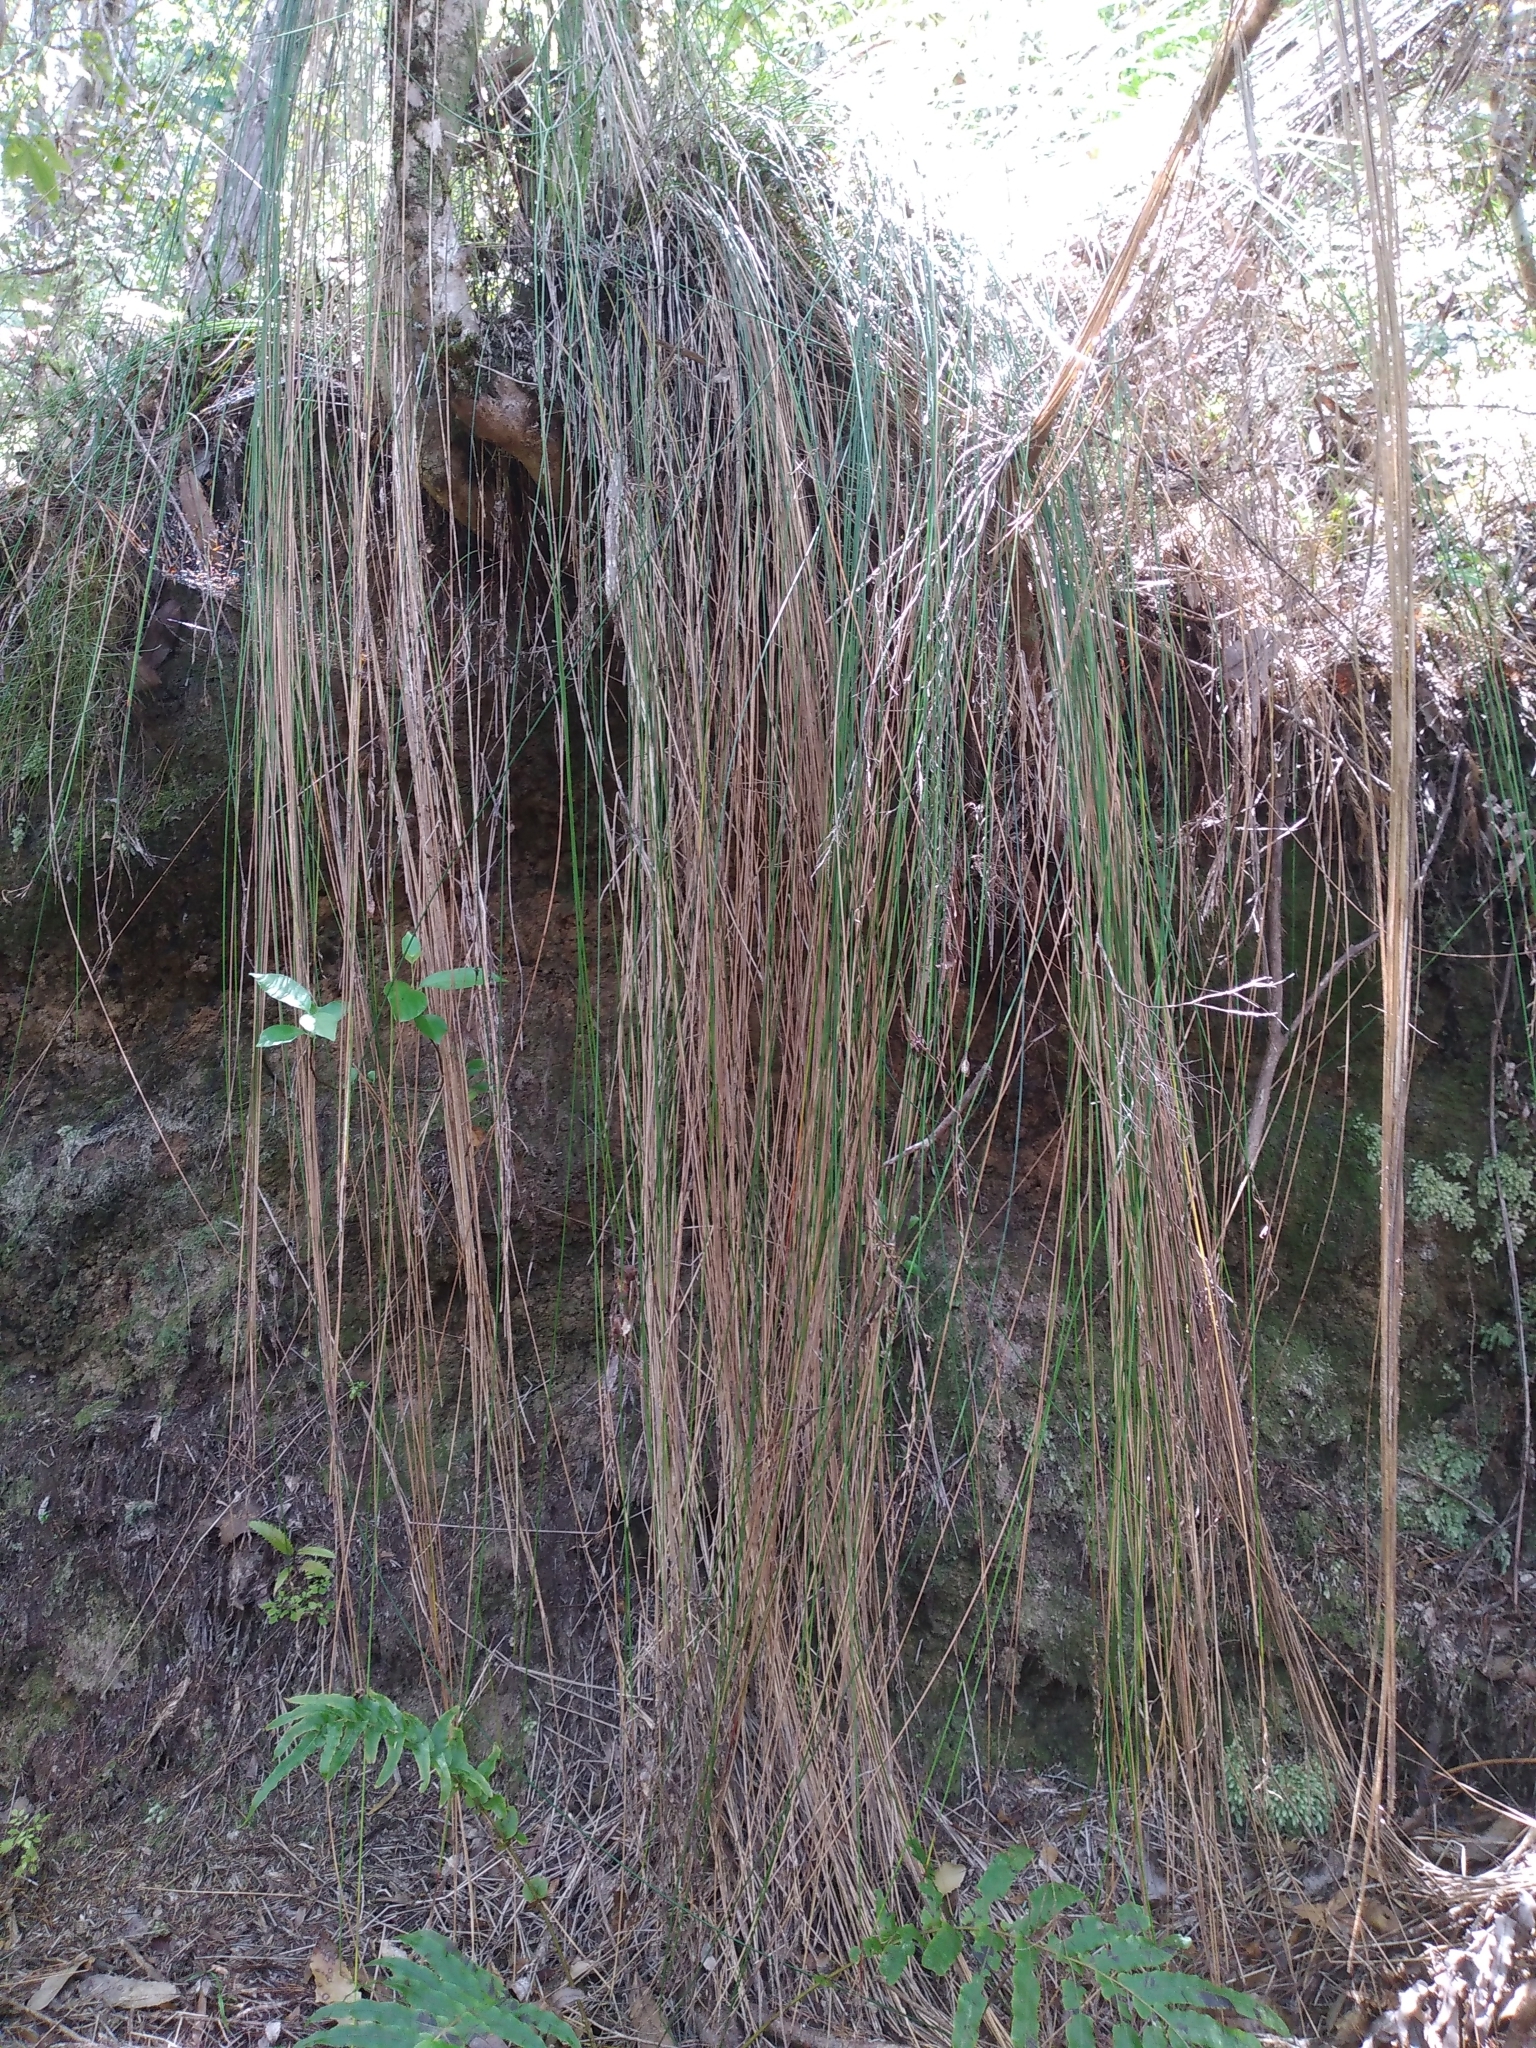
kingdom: Plantae
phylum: Tracheophyta
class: Liliopsida
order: Poales
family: Cyperaceae
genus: Schoenus
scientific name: Schoenus tendo
